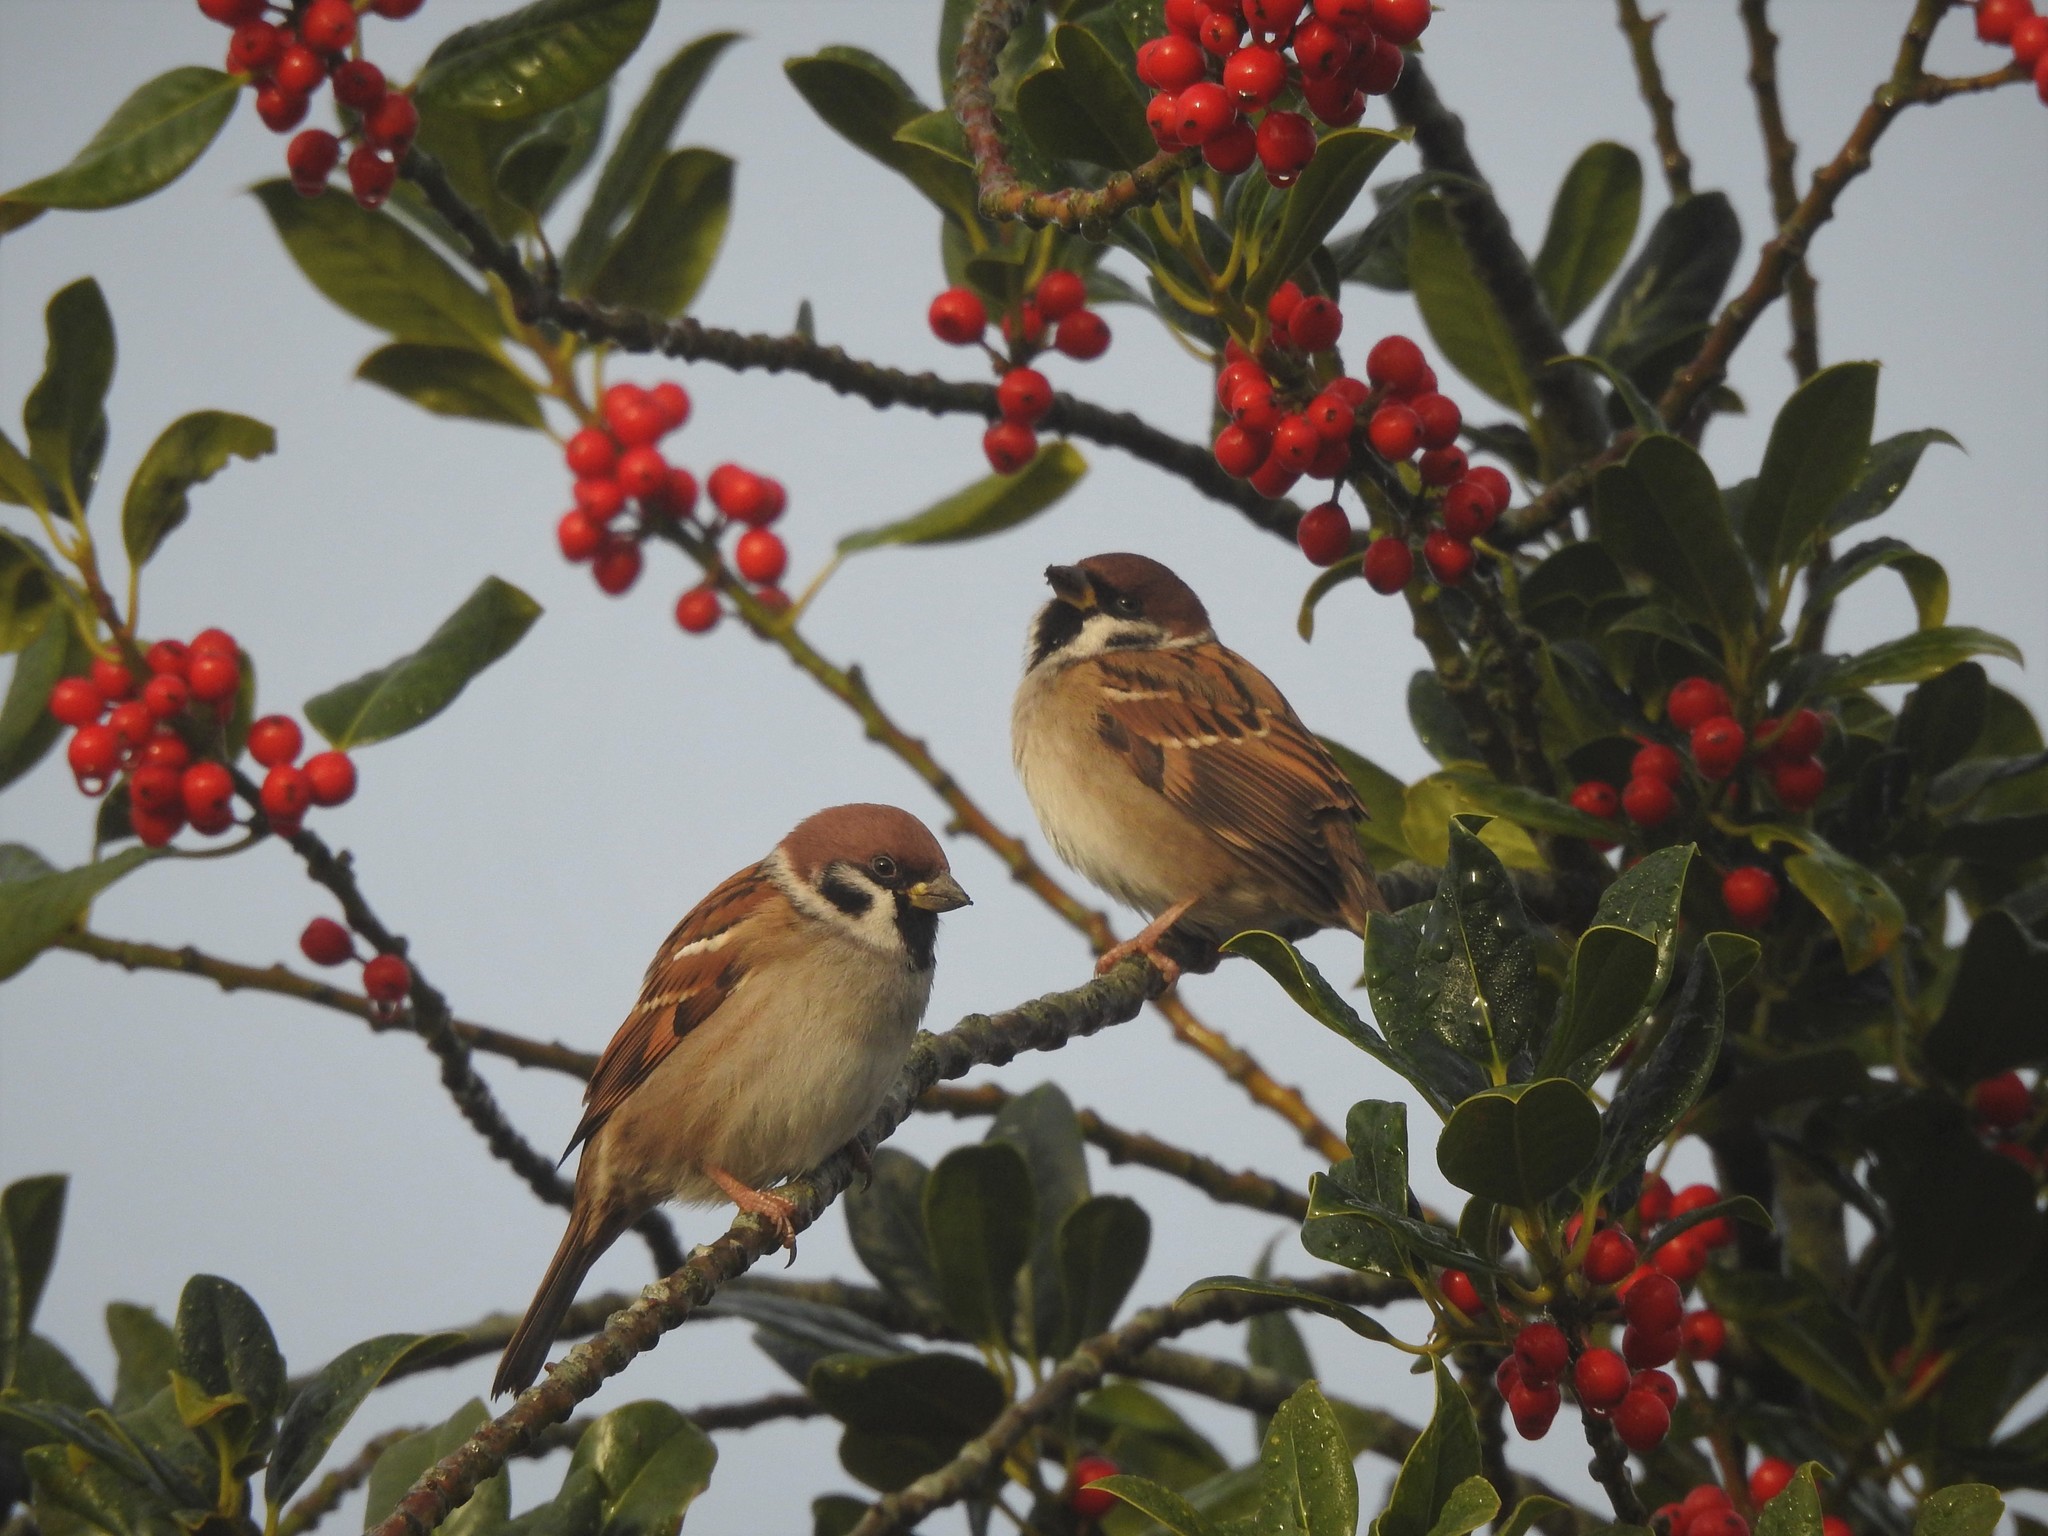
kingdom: Animalia
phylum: Chordata
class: Aves
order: Passeriformes
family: Passeridae
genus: Passer
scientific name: Passer montanus
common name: Eurasian tree sparrow
